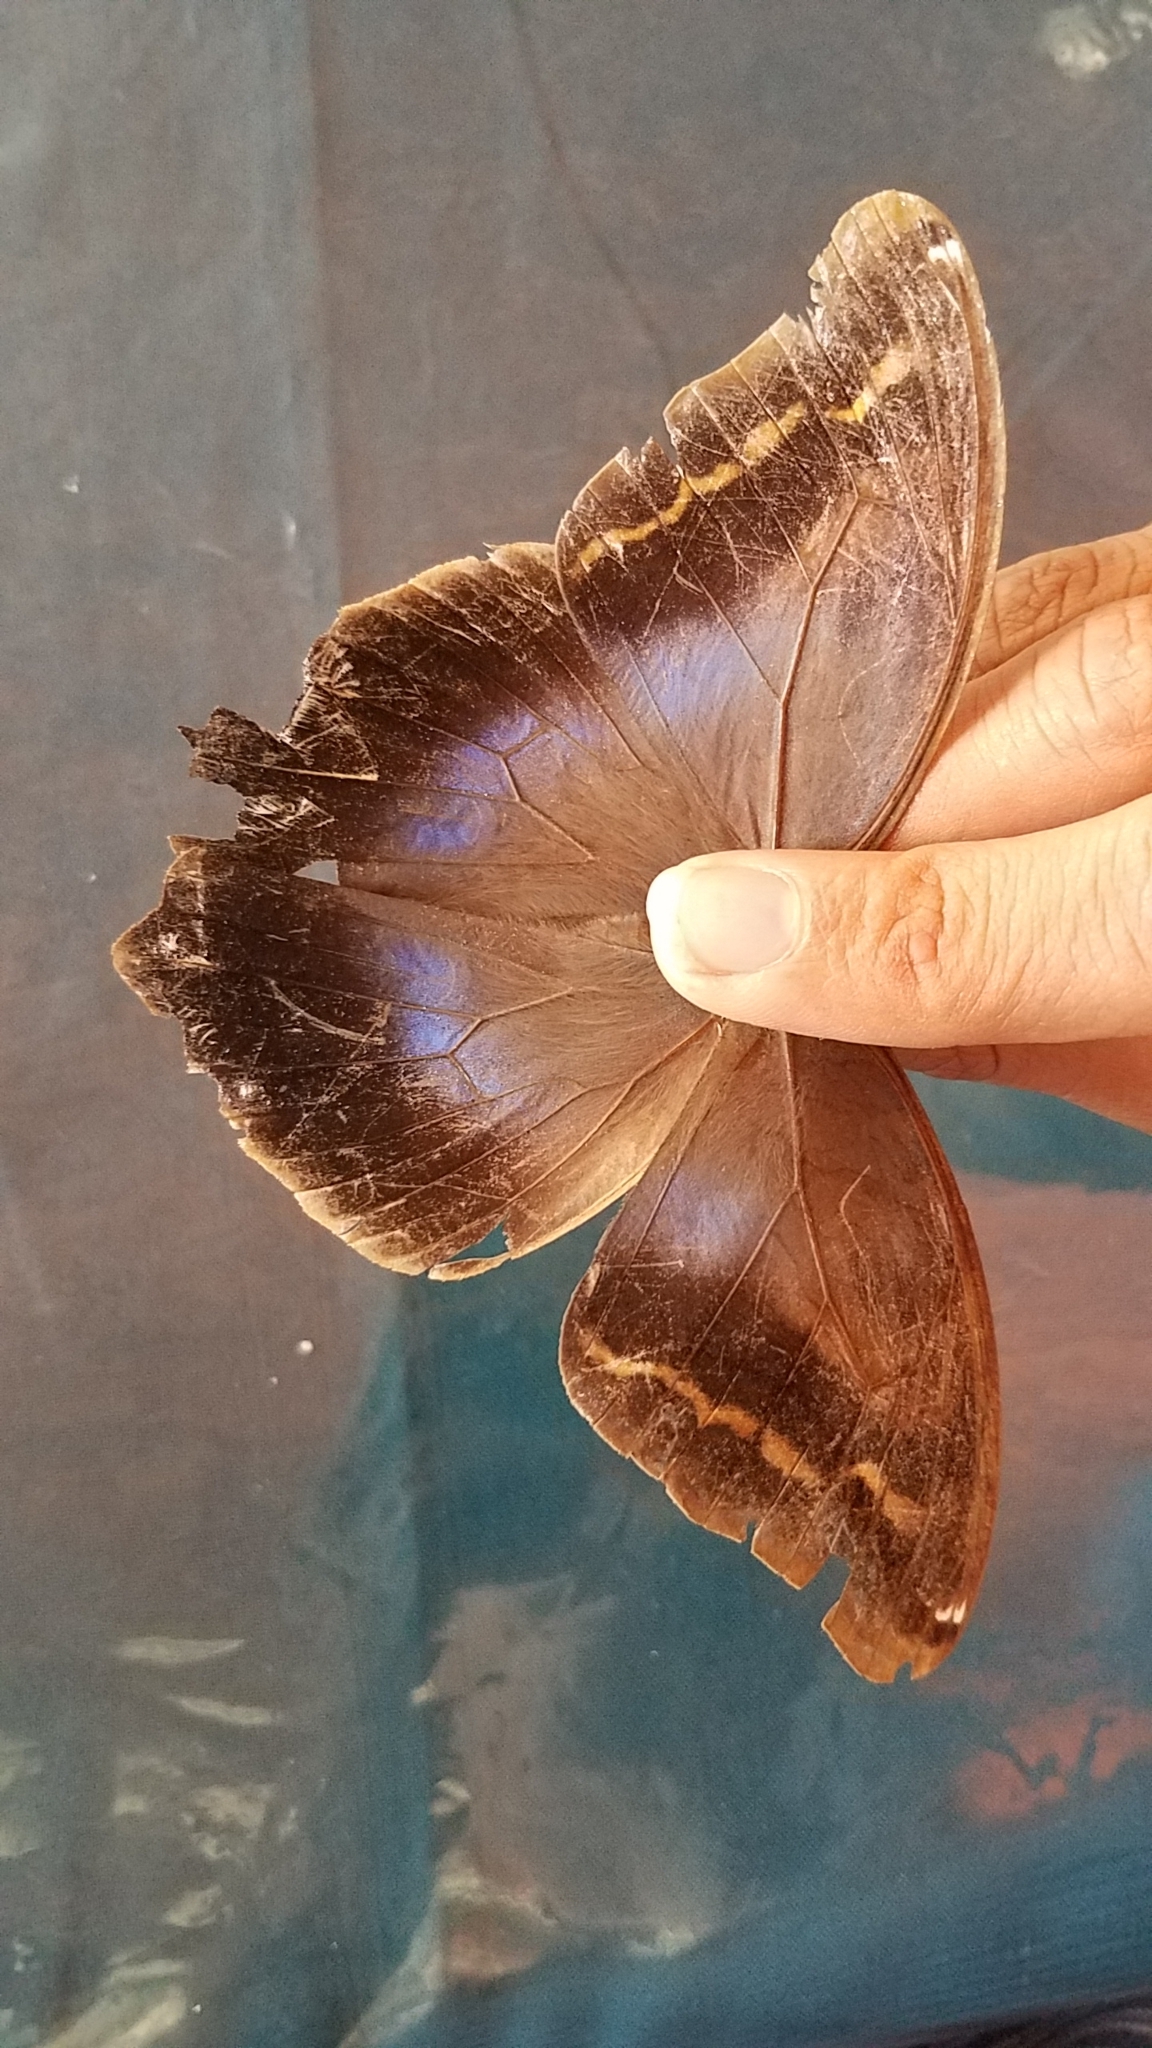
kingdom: Animalia
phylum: Arthropoda
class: Insecta
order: Lepidoptera
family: Nymphalidae
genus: Eryphanis
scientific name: Eryphanis lycomedon
